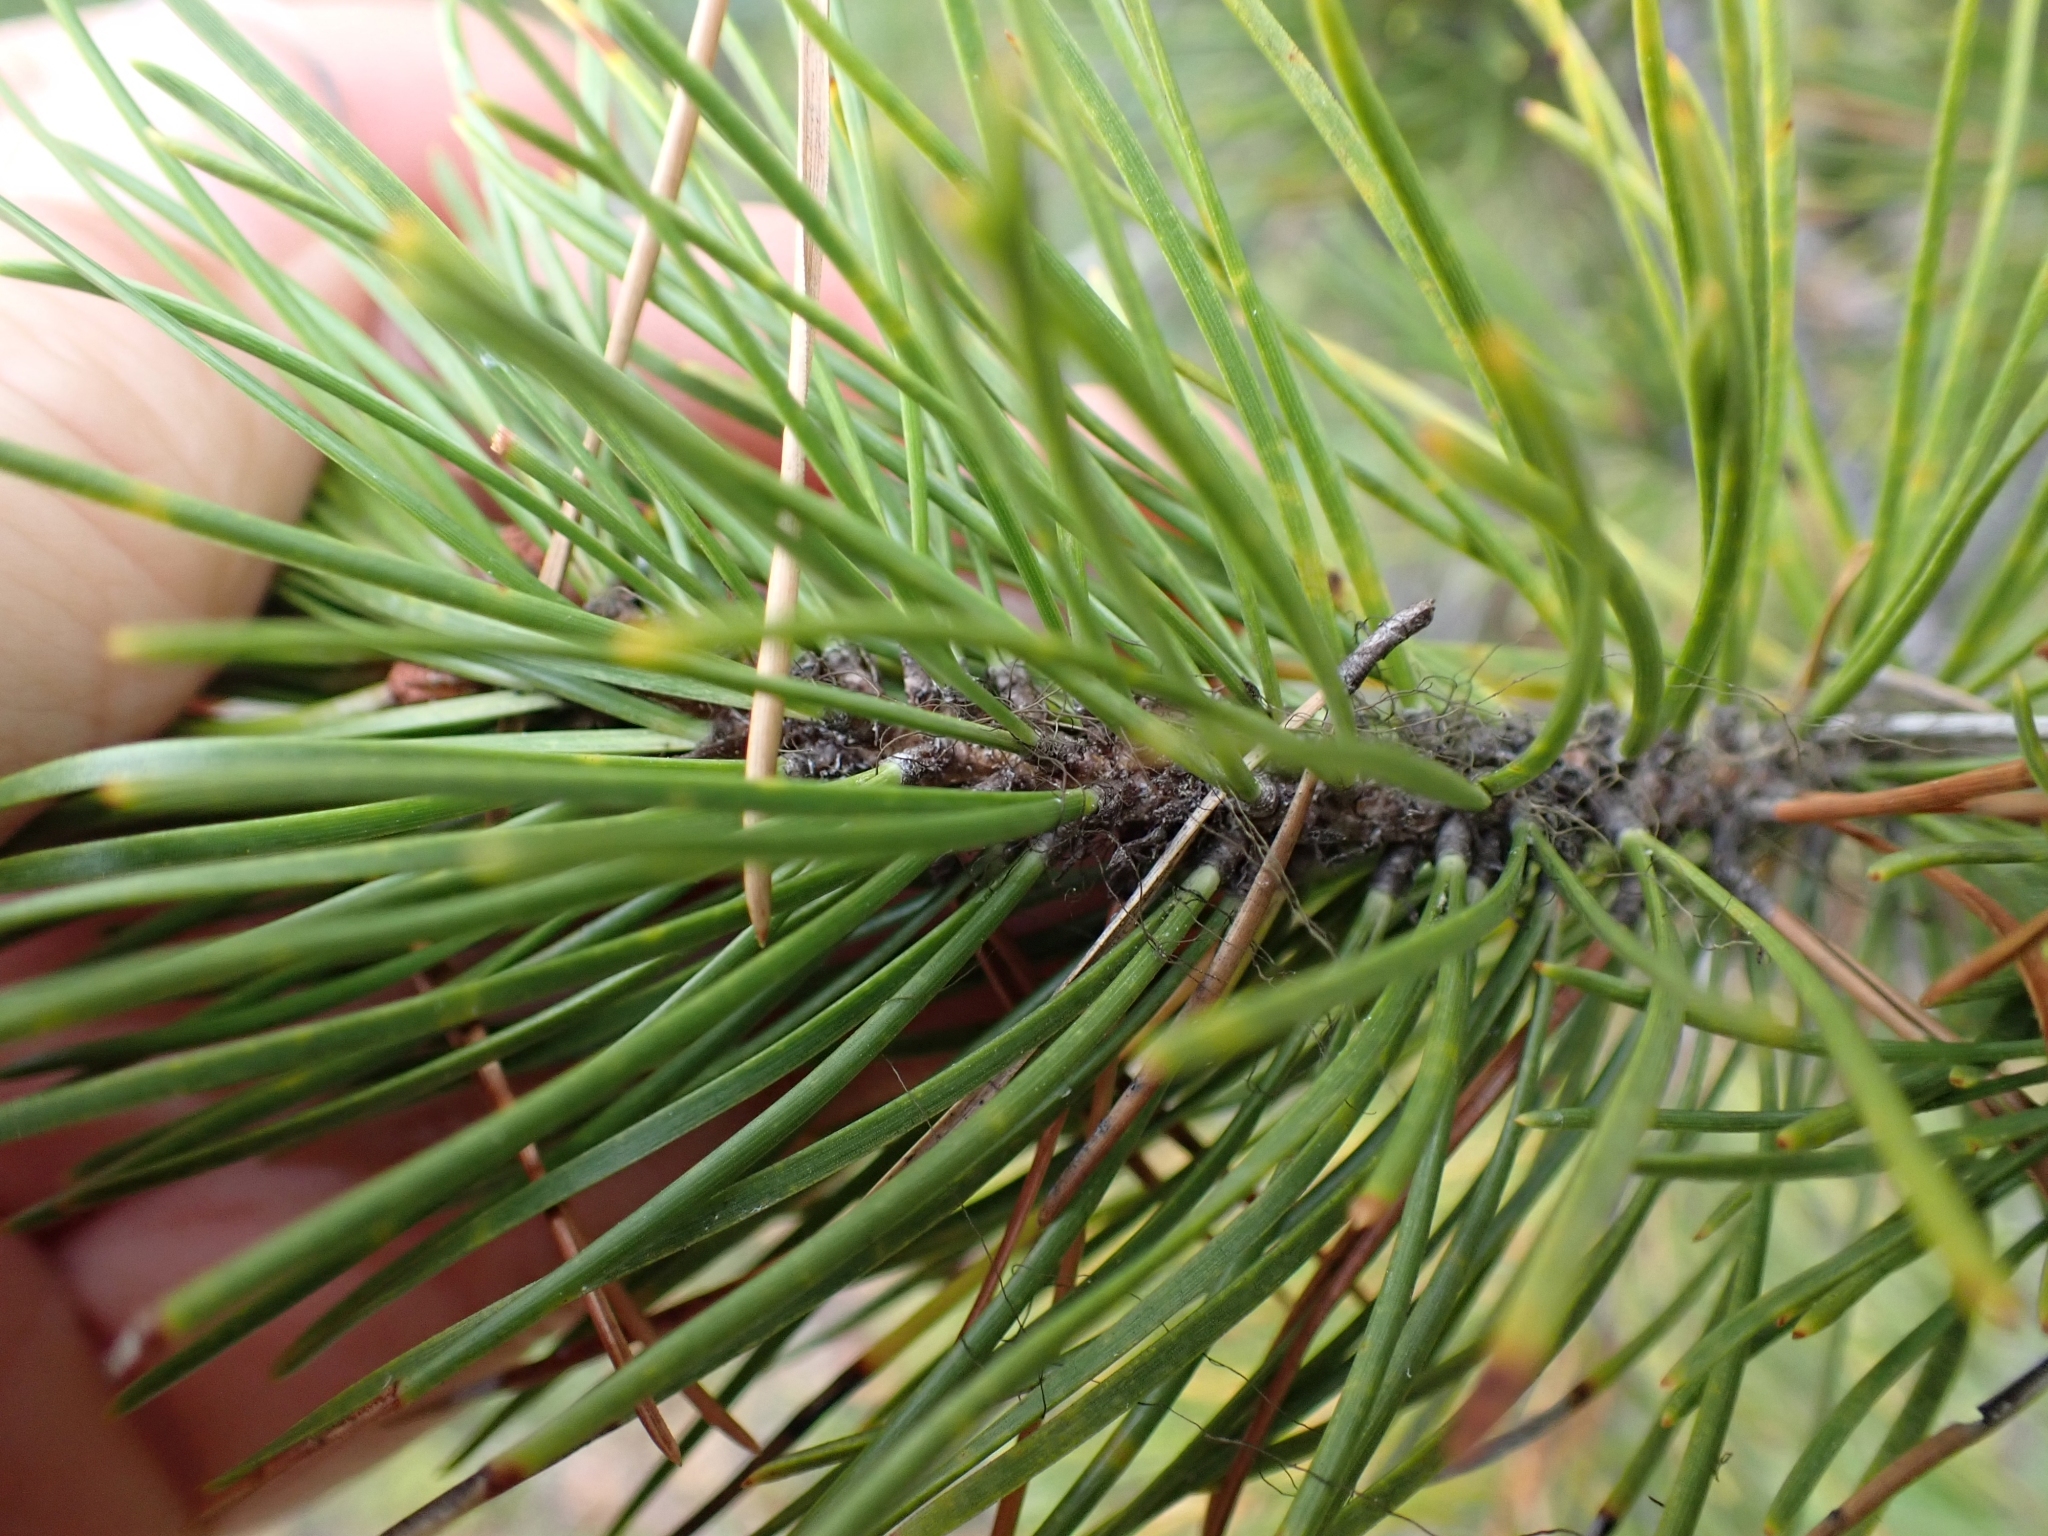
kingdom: Plantae
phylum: Tracheophyta
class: Pinopsida
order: Pinales
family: Pinaceae
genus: Pinus
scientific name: Pinus contorta
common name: Lodgepole pine
